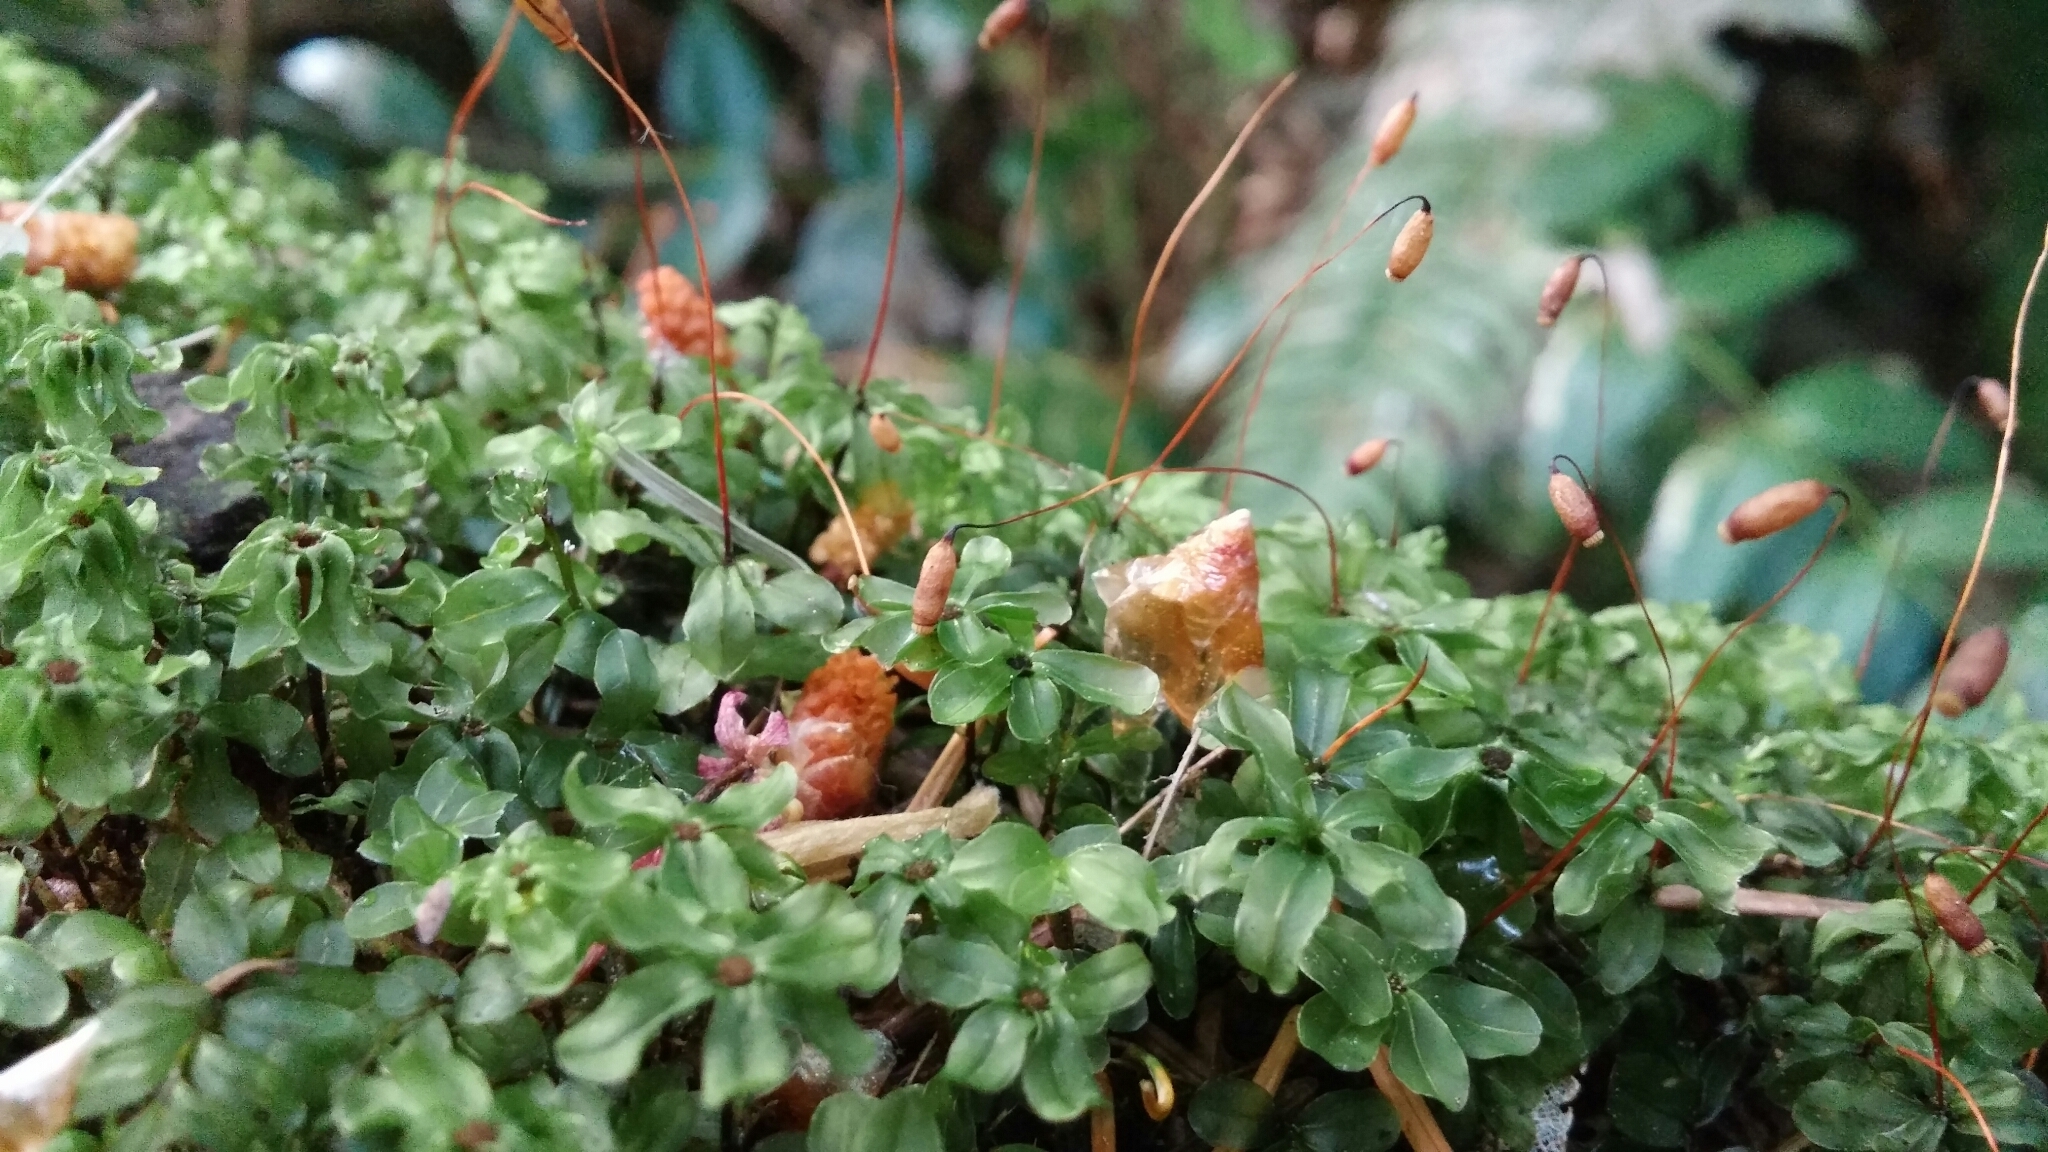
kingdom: Plantae
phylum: Bryophyta
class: Bryopsida
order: Bryales
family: Mniaceae
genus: Rhizomnium
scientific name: Rhizomnium glabrescens
